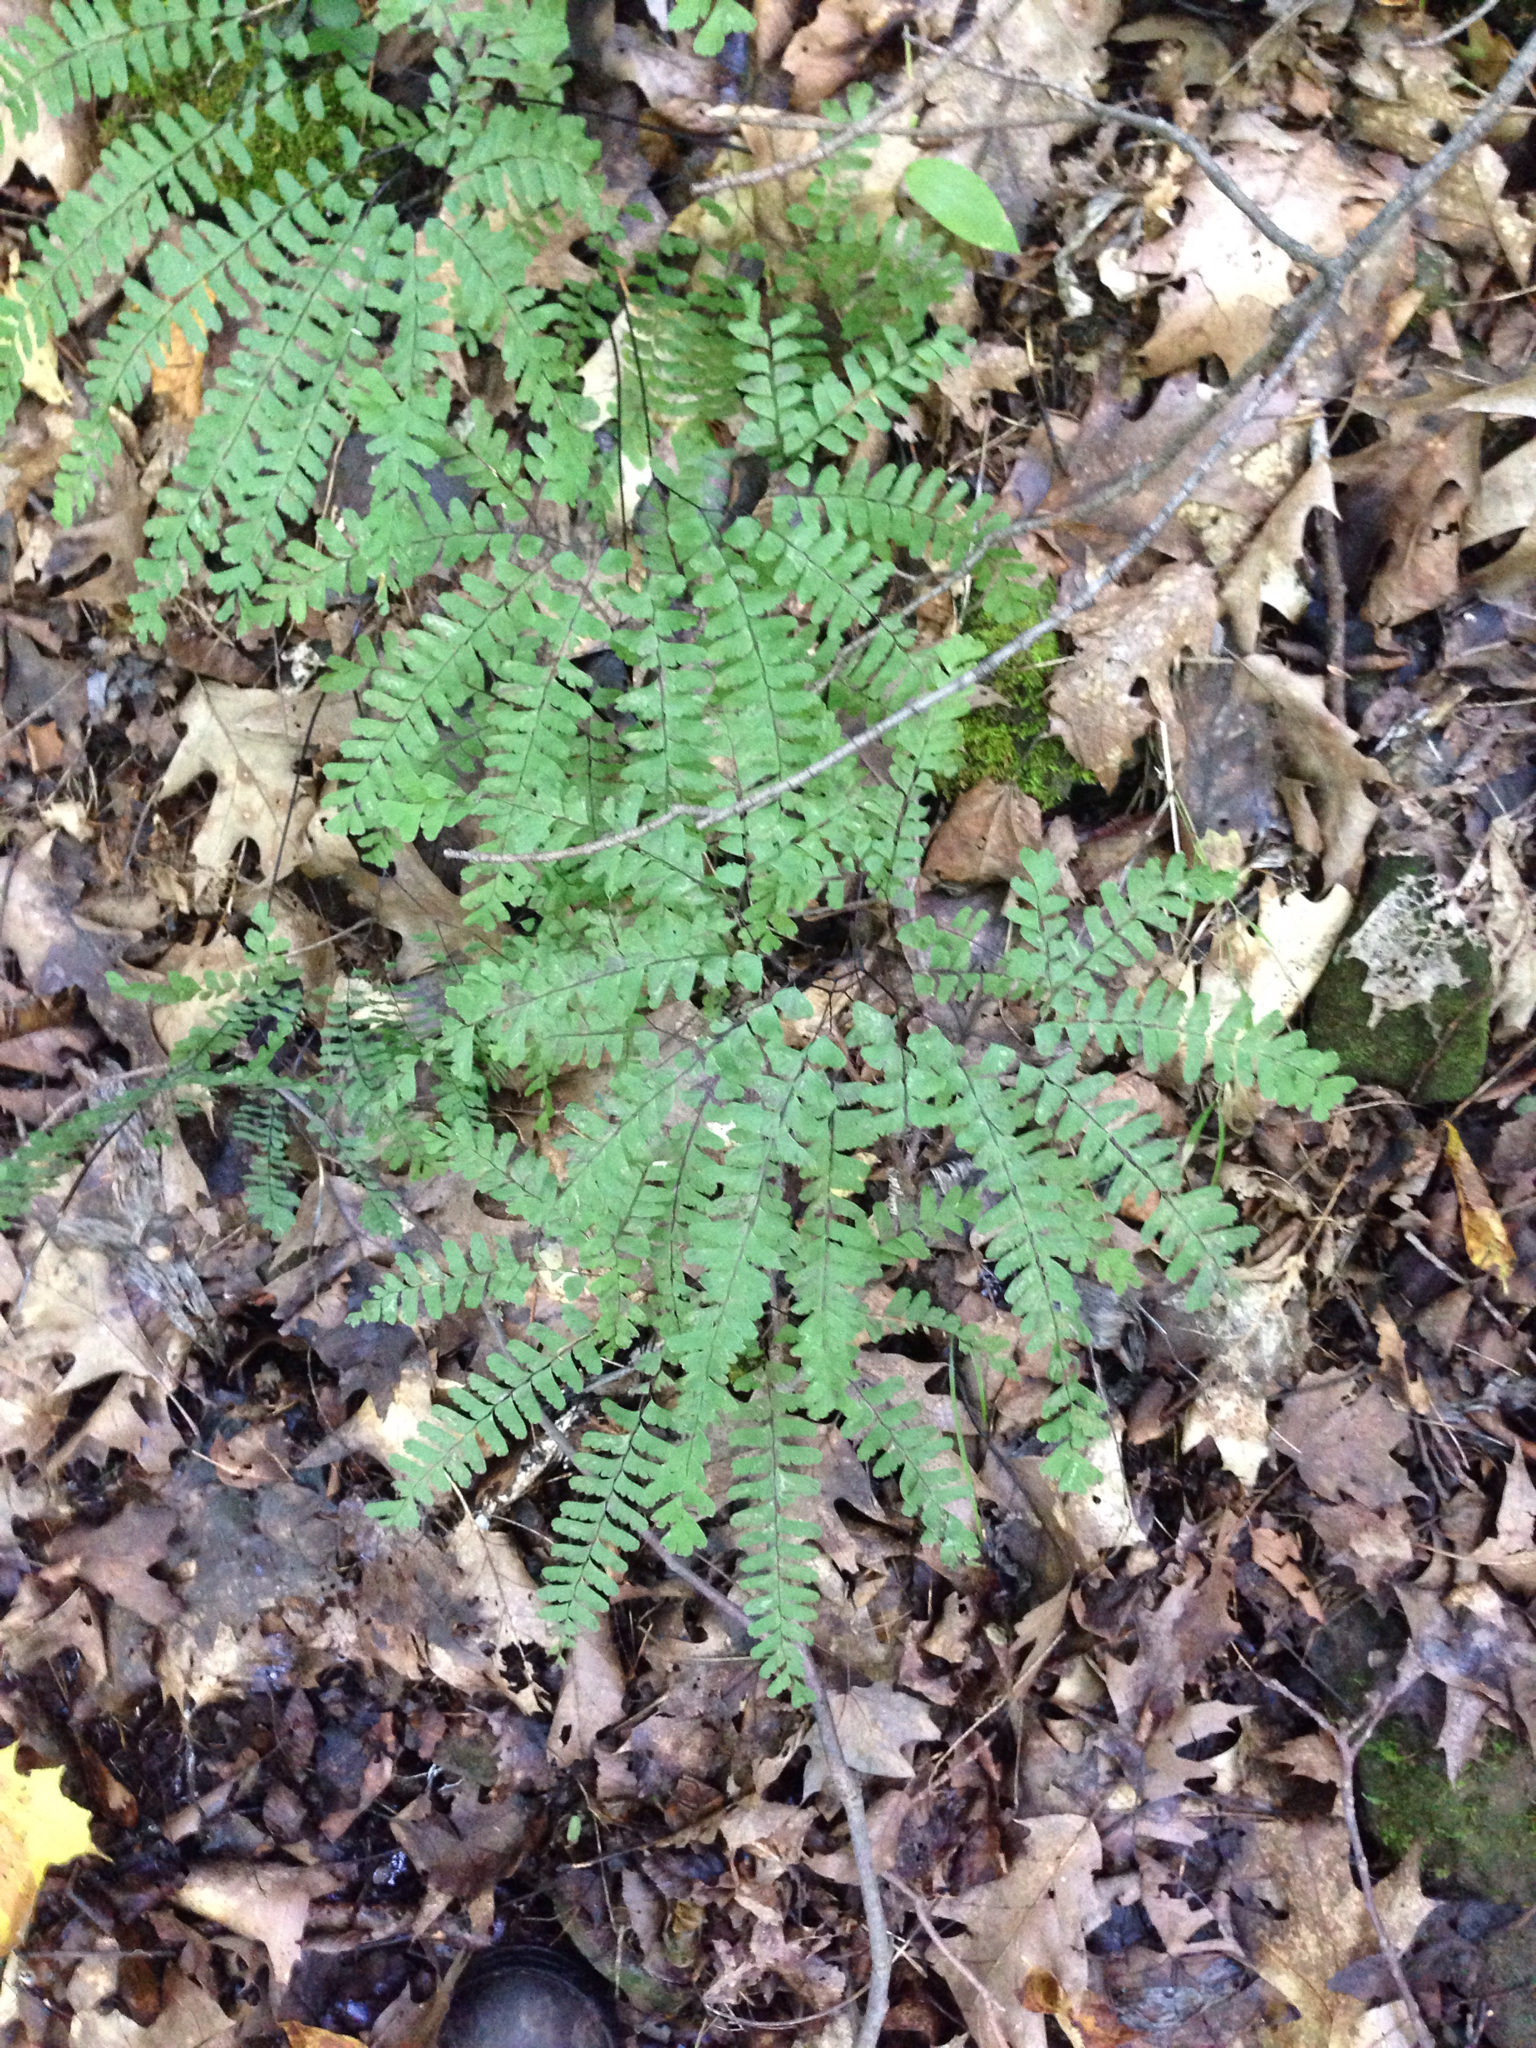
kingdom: Plantae
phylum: Tracheophyta
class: Polypodiopsida
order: Polypodiales
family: Pteridaceae
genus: Adiantum
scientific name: Adiantum pedatum
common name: Five-finger fern
